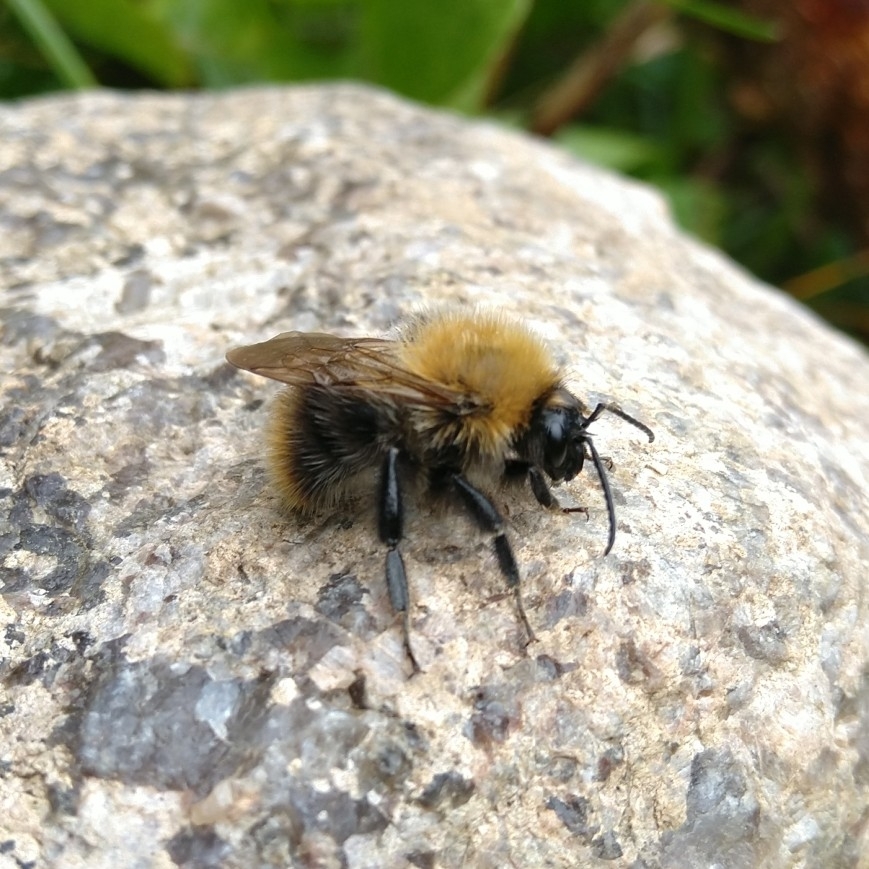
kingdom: Animalia
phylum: Arthropoda
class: Insecta
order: Hymenoptera
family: Apidae
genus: Bombus
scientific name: Bombus pascuorum
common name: Common carder bee
